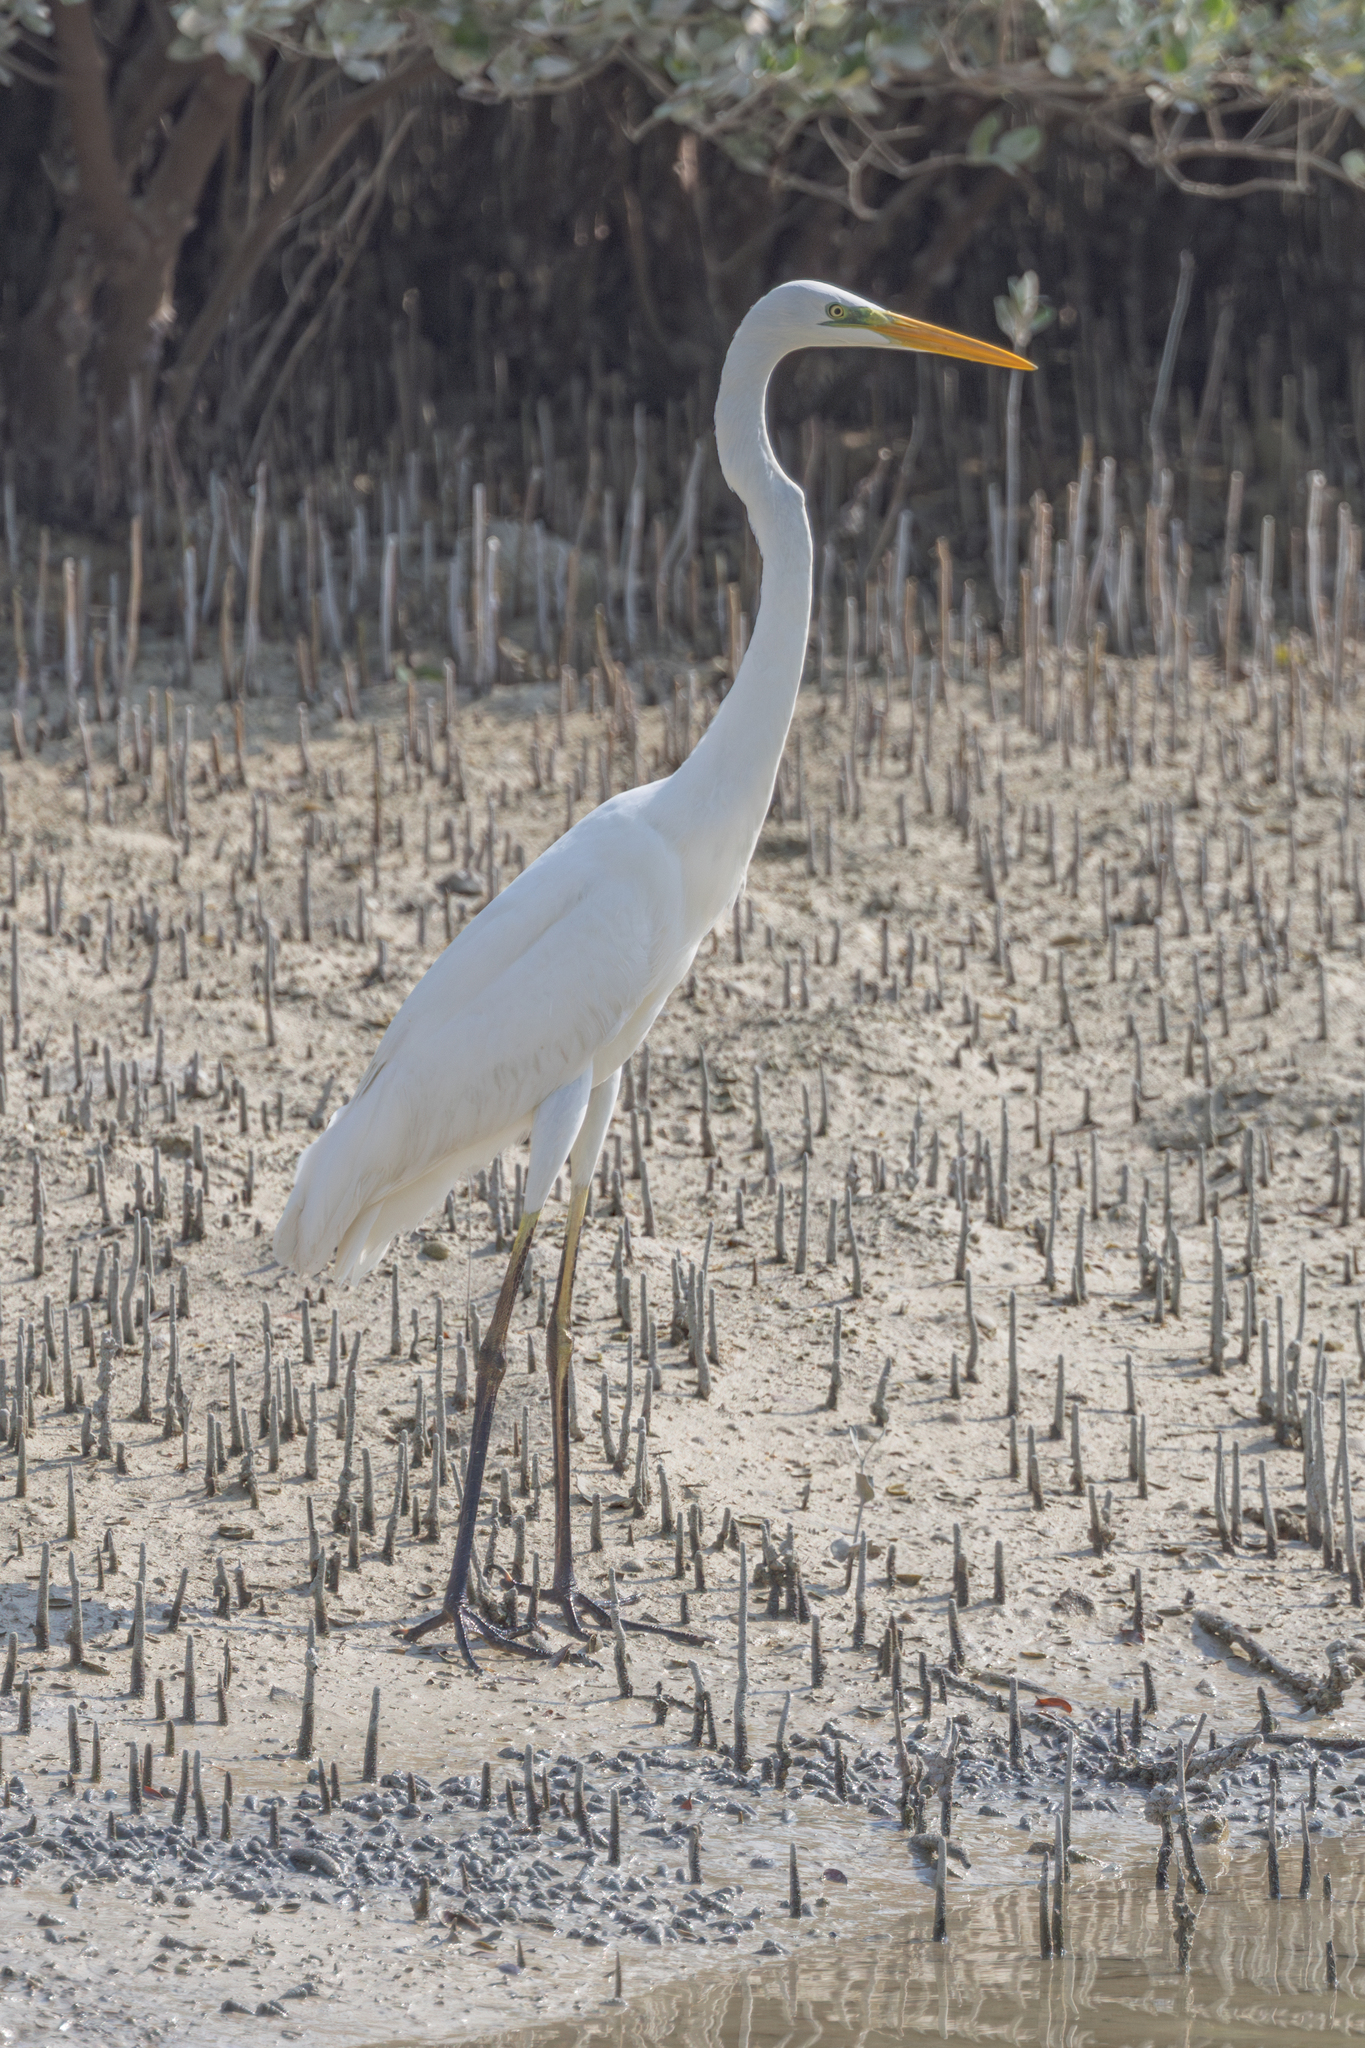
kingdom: Animalia
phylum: Chordata
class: Aves
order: Pelecaniformes
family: Ardeidae
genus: Ardea
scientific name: Ardea alba
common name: Great egret
